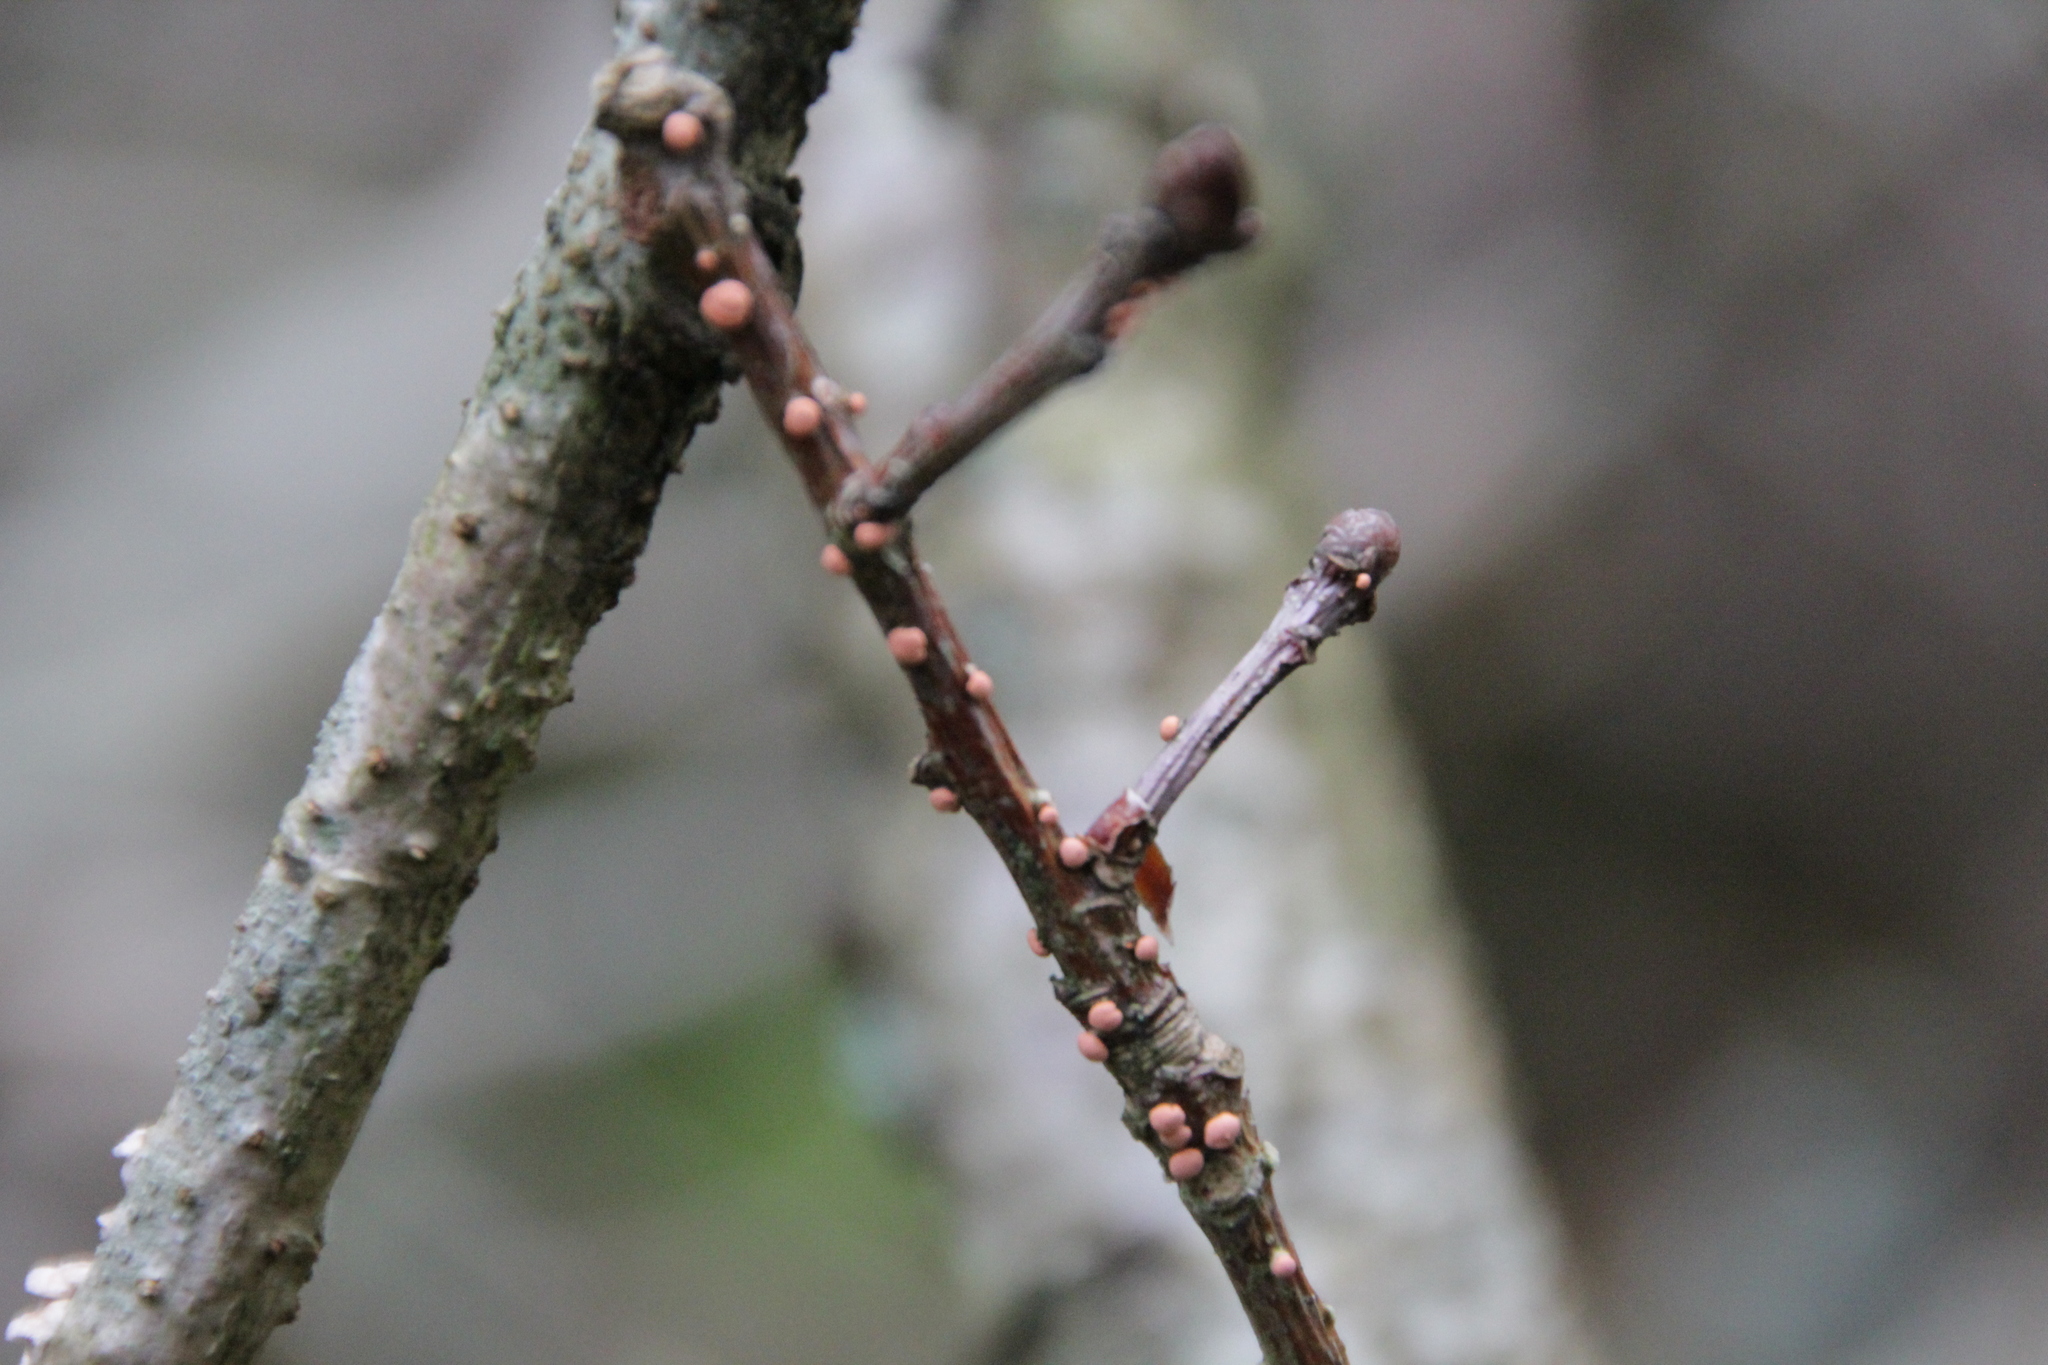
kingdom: Fungi
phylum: Ascomycota
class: Sordariomycetes
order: Hypocreales
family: Nectriaceae
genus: Nectria
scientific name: Nectria cinnabarina
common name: Coral spot
